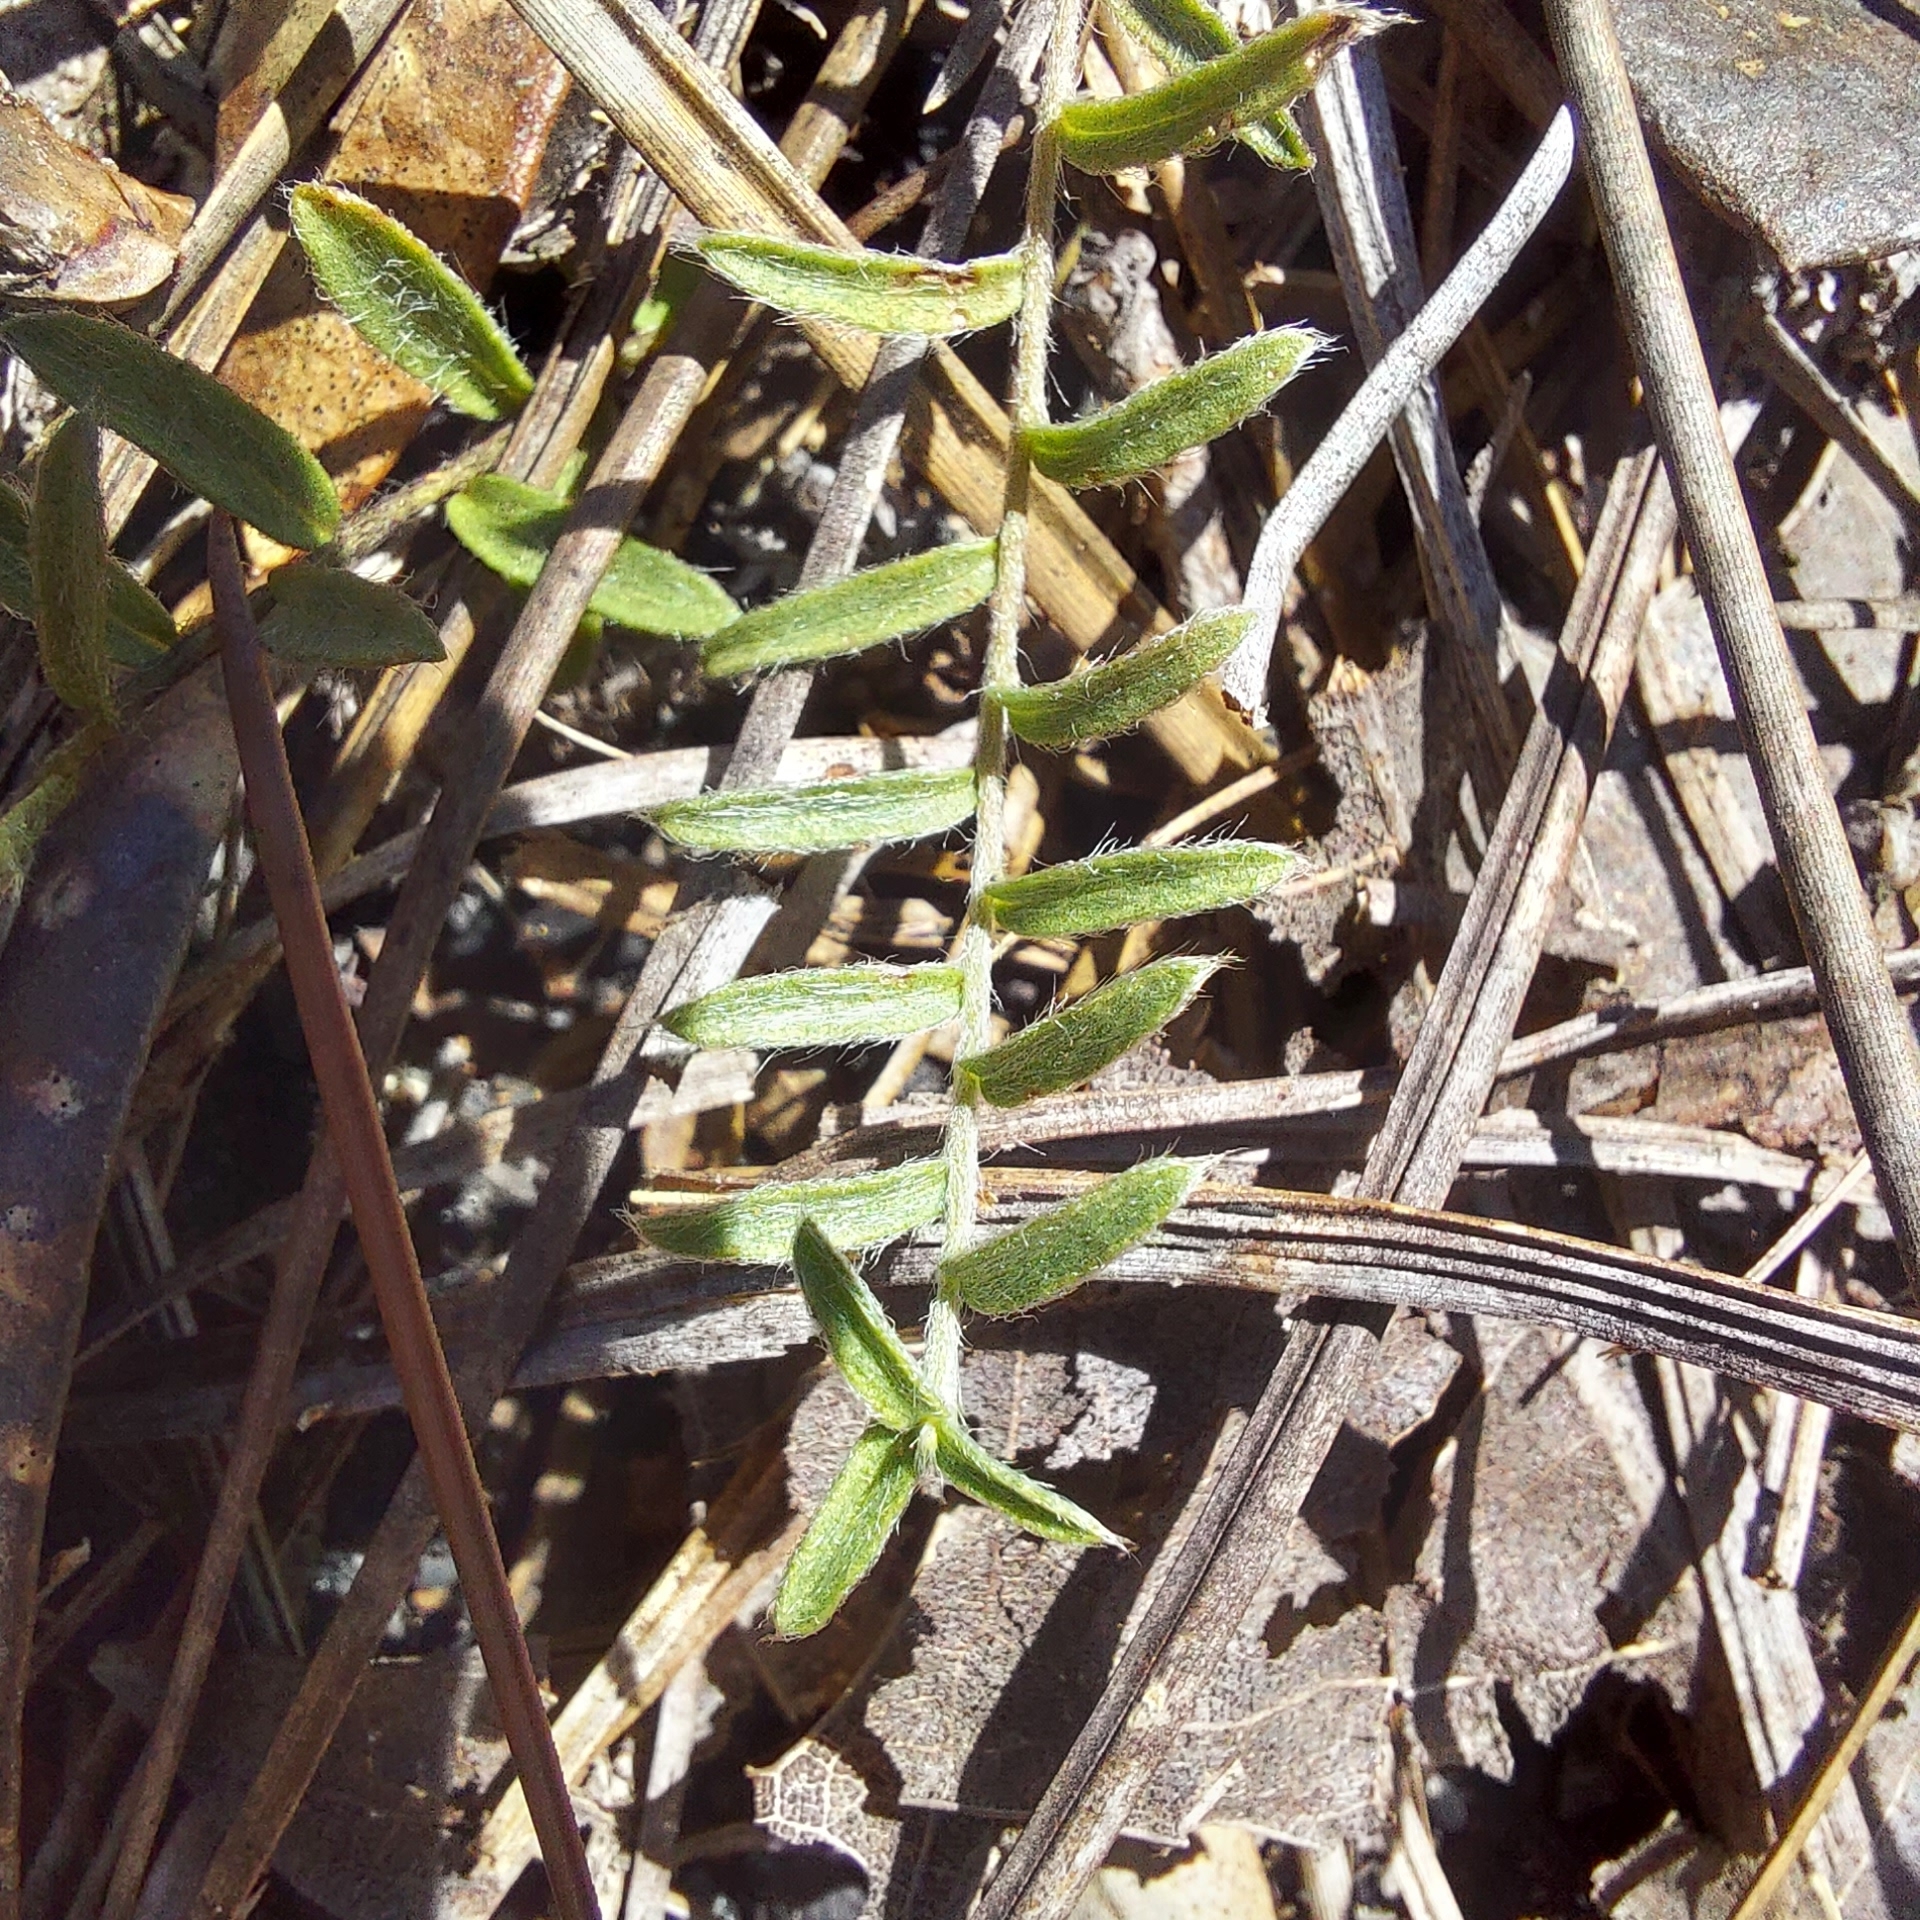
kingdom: Plantae
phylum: Tracheophyta
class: Magnoliopsida
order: Solanales
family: Convolvulaceae
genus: Stylisma
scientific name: Stylisma abdita
